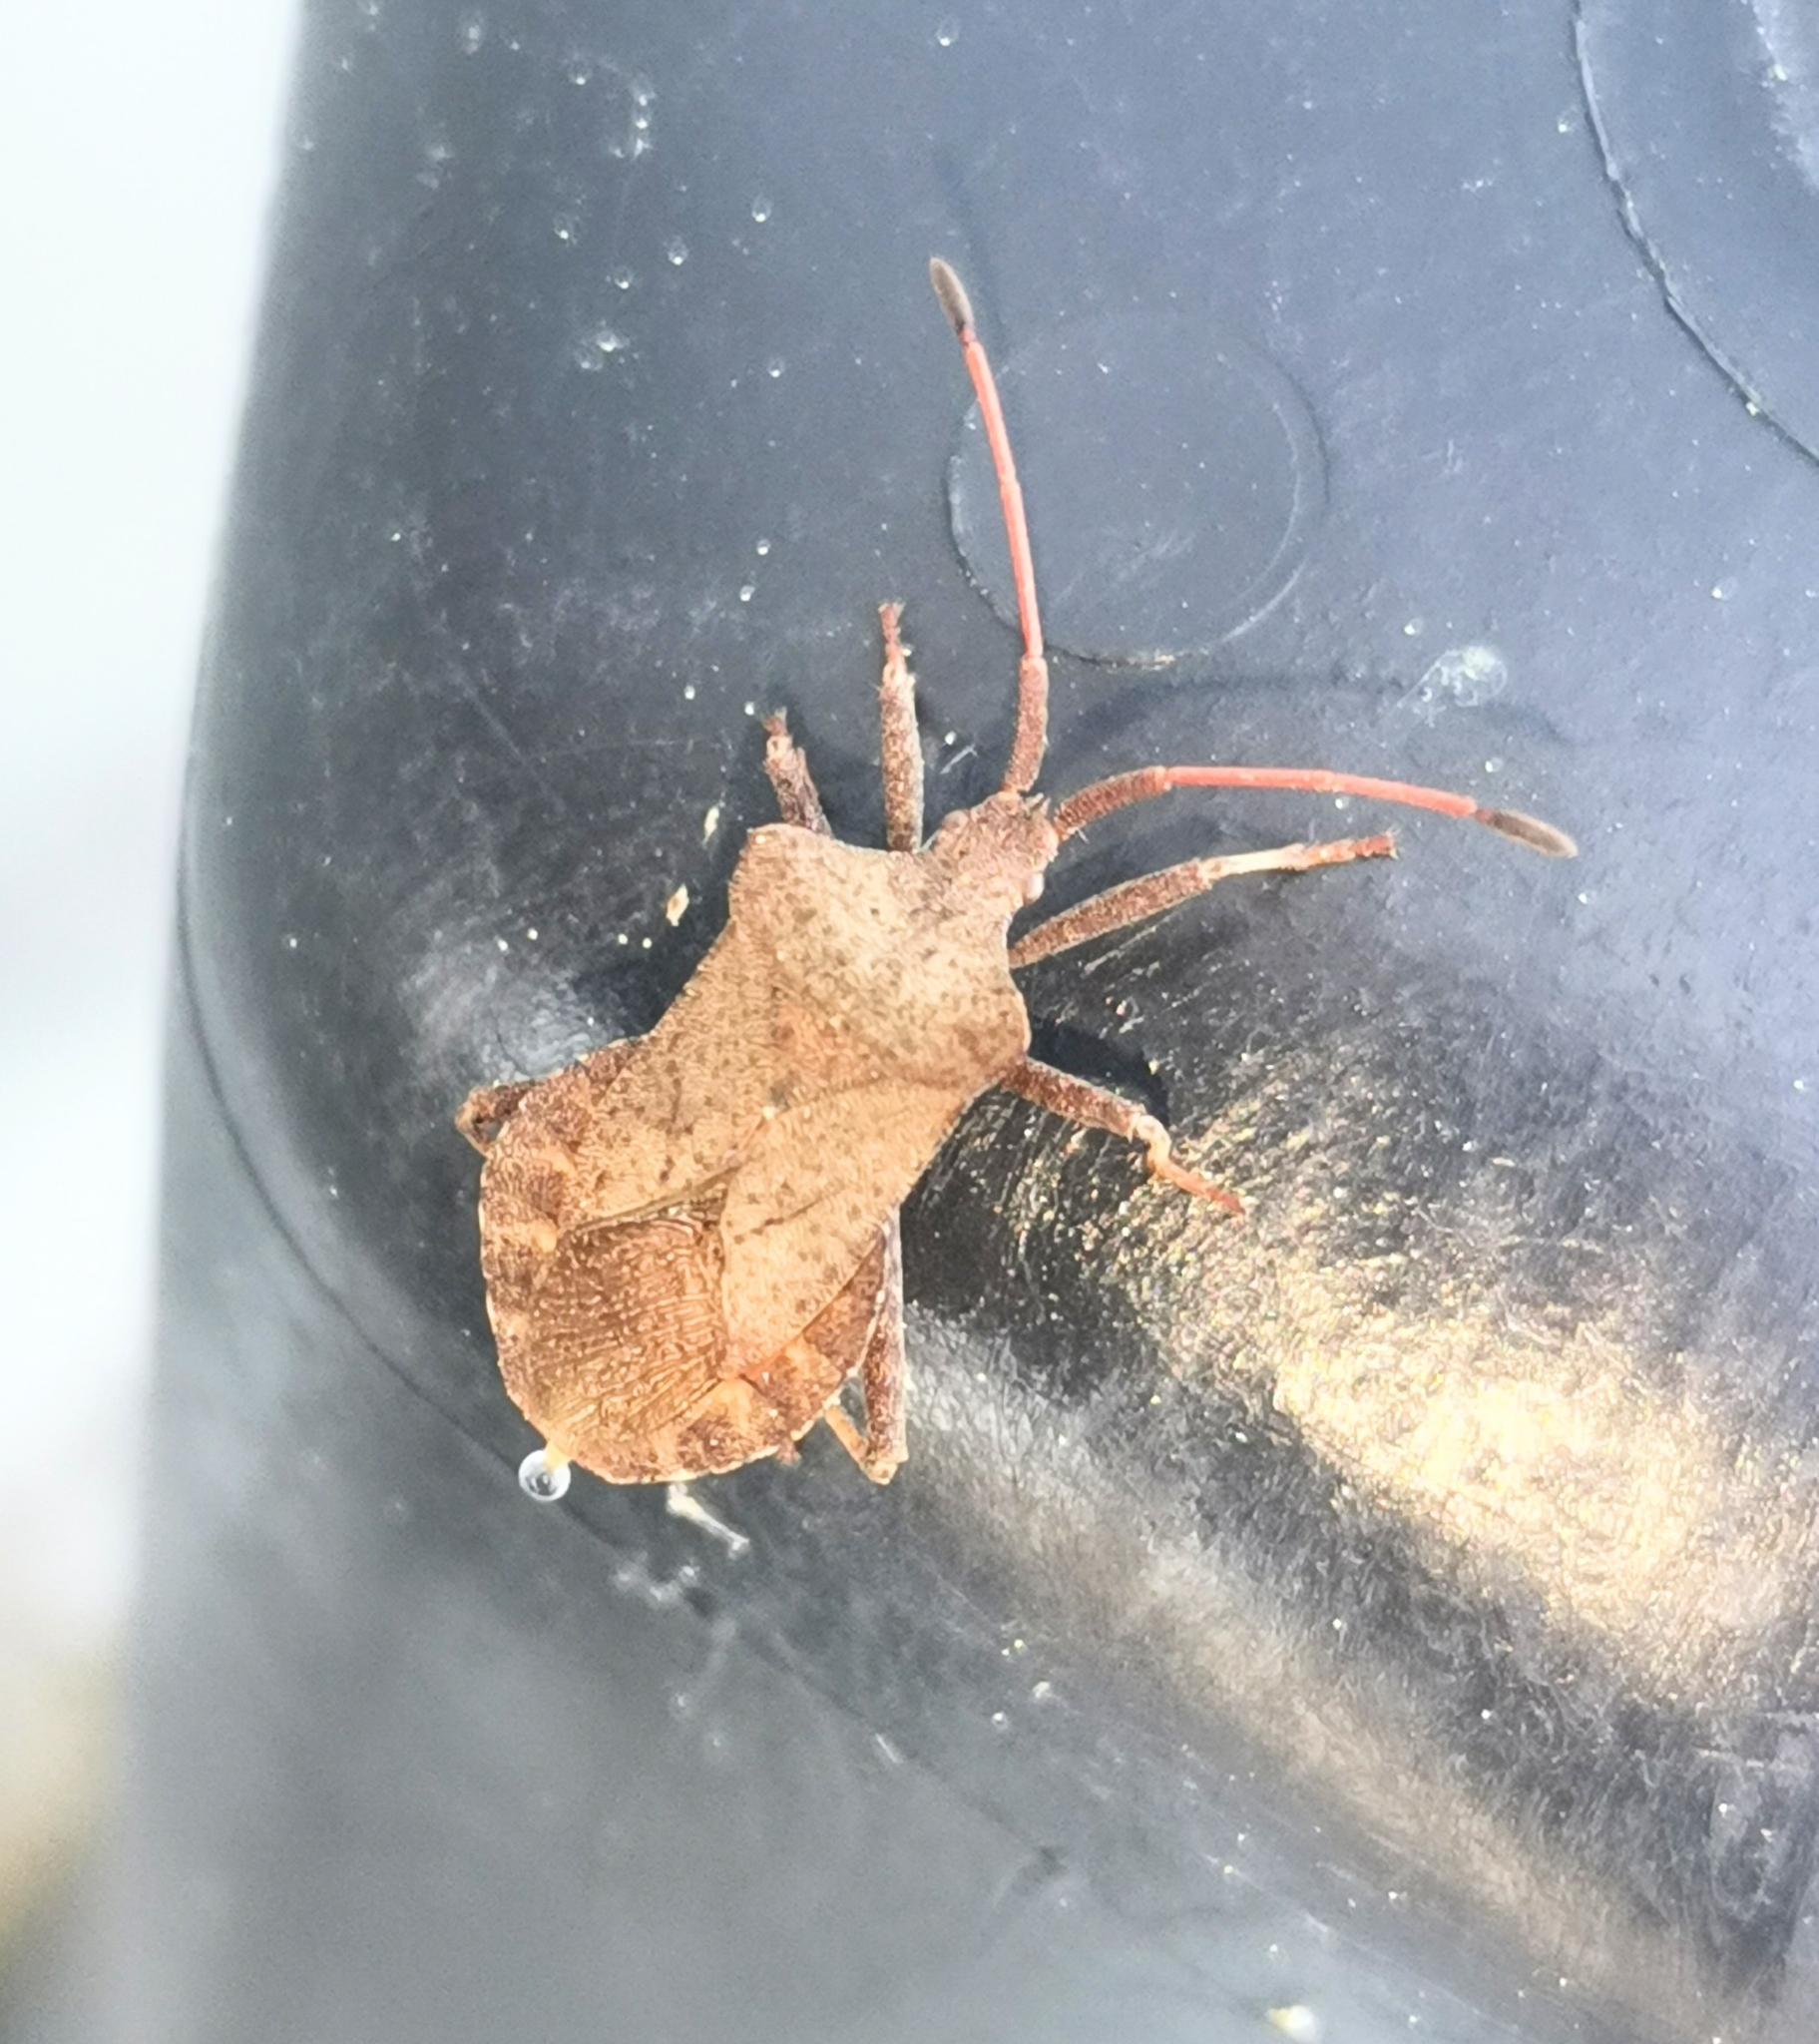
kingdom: Animalia
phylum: Arthropoda
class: Insecta
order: Hemiptera
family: Coreidae
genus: Coreus
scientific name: Coreus marginatus
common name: Dock bug
